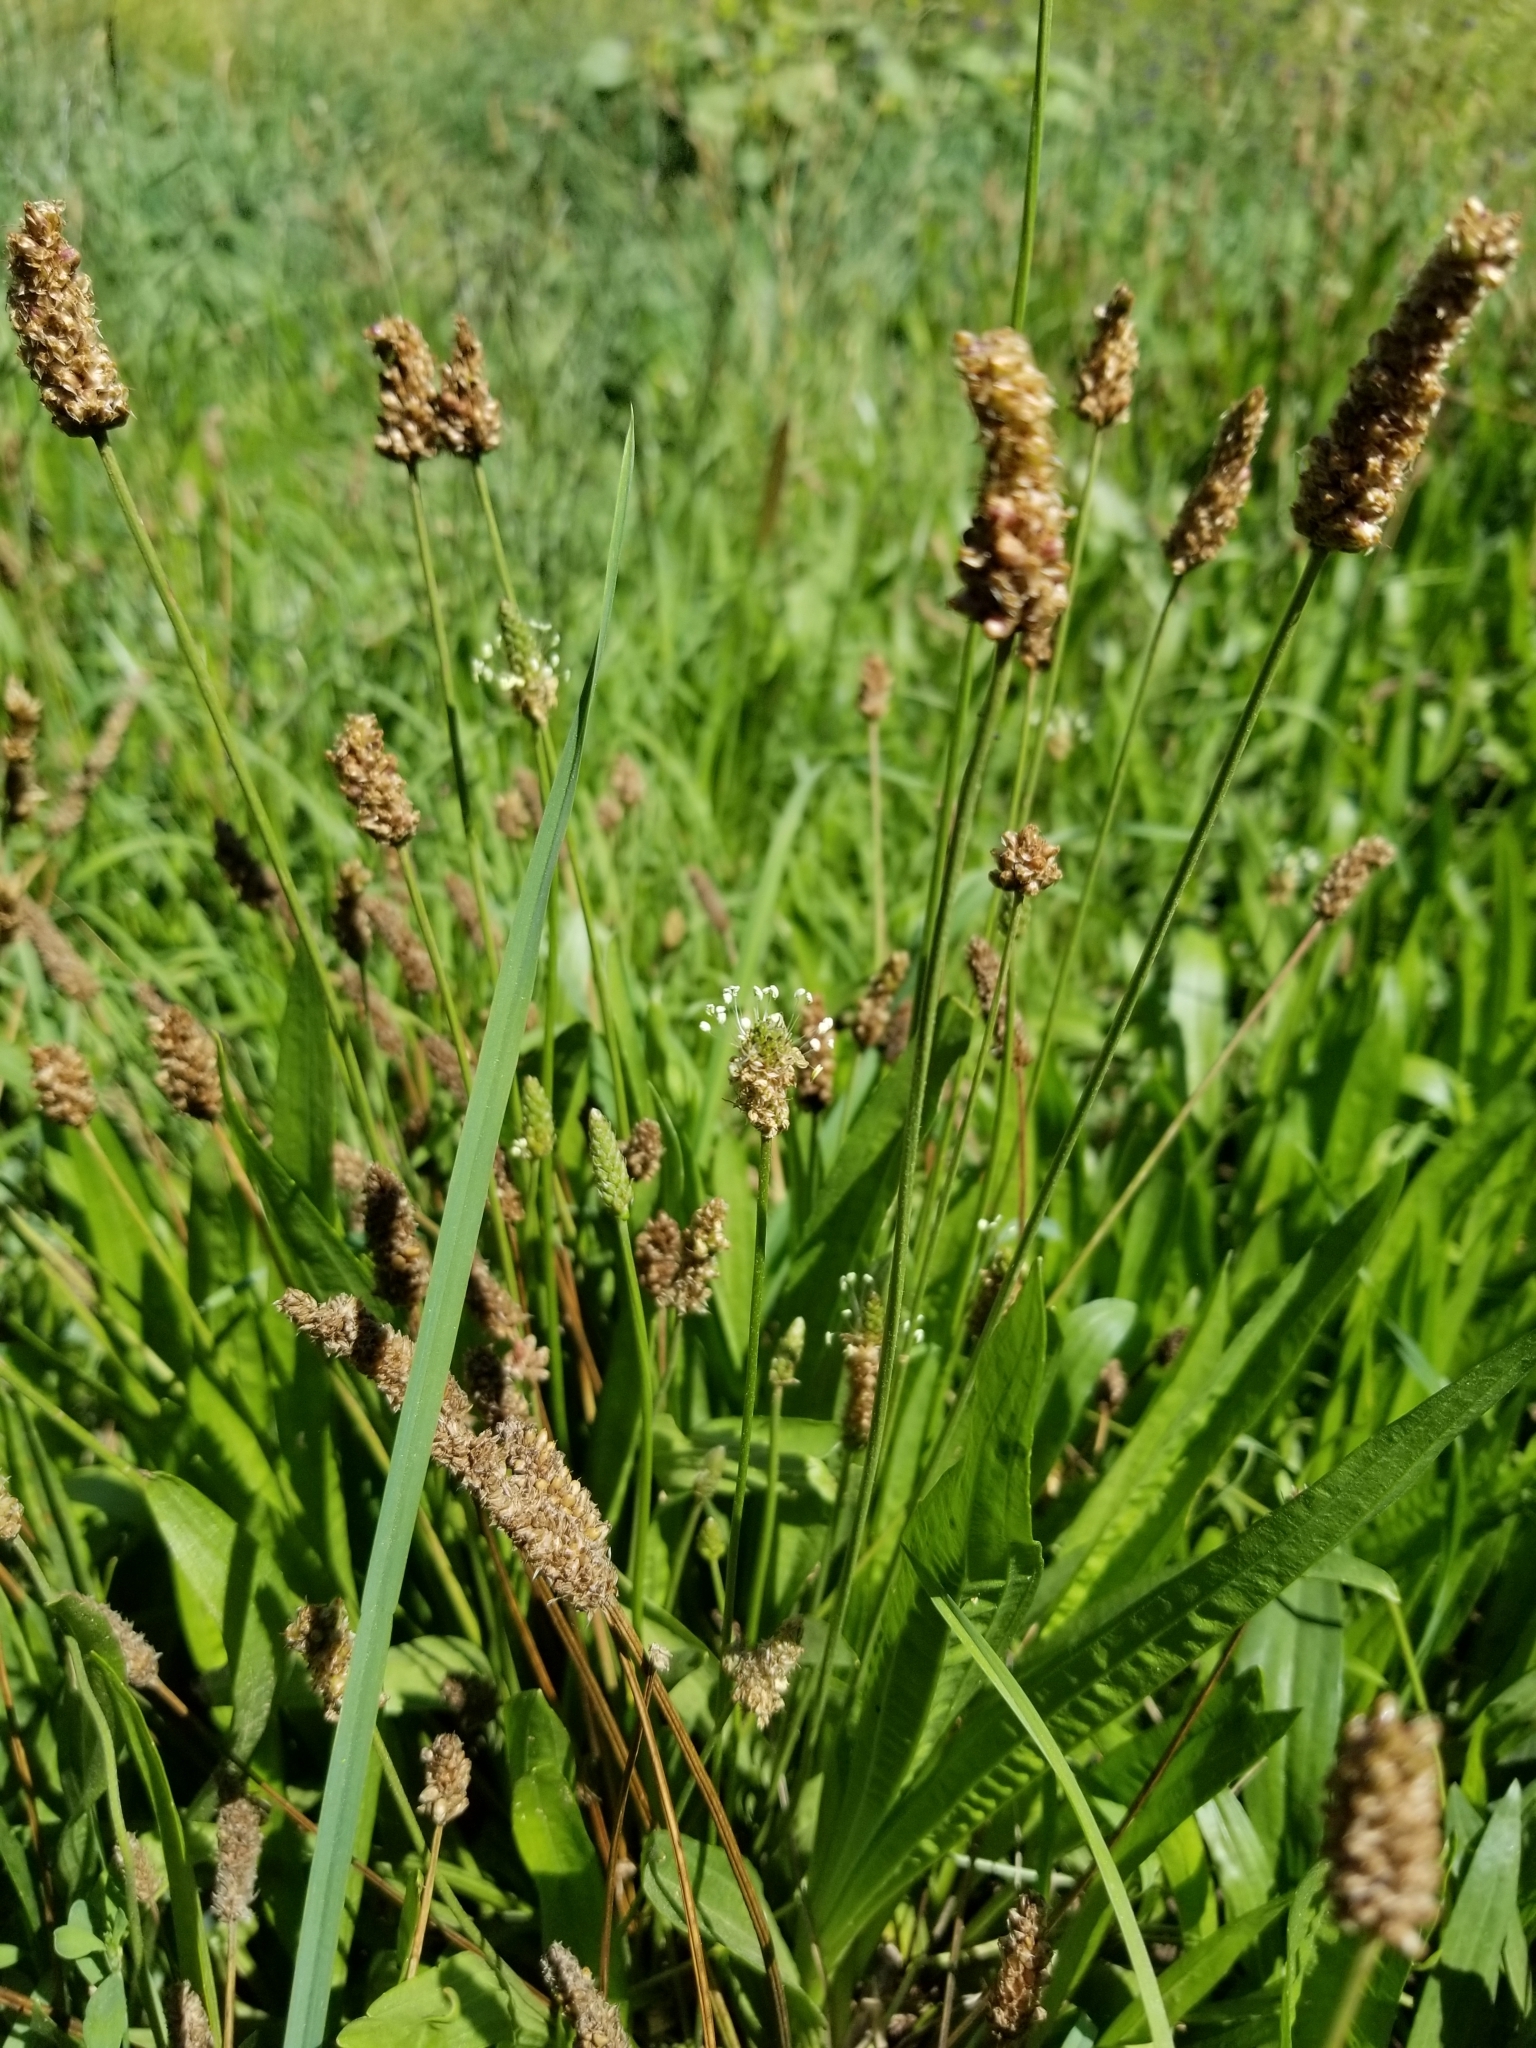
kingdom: Plantae
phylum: Tracheophyta
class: Magnoliopsida
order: Lamiales
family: Plantaginaceae
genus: Plantago
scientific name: Plantago lanceolata
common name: Ribwort plantain
